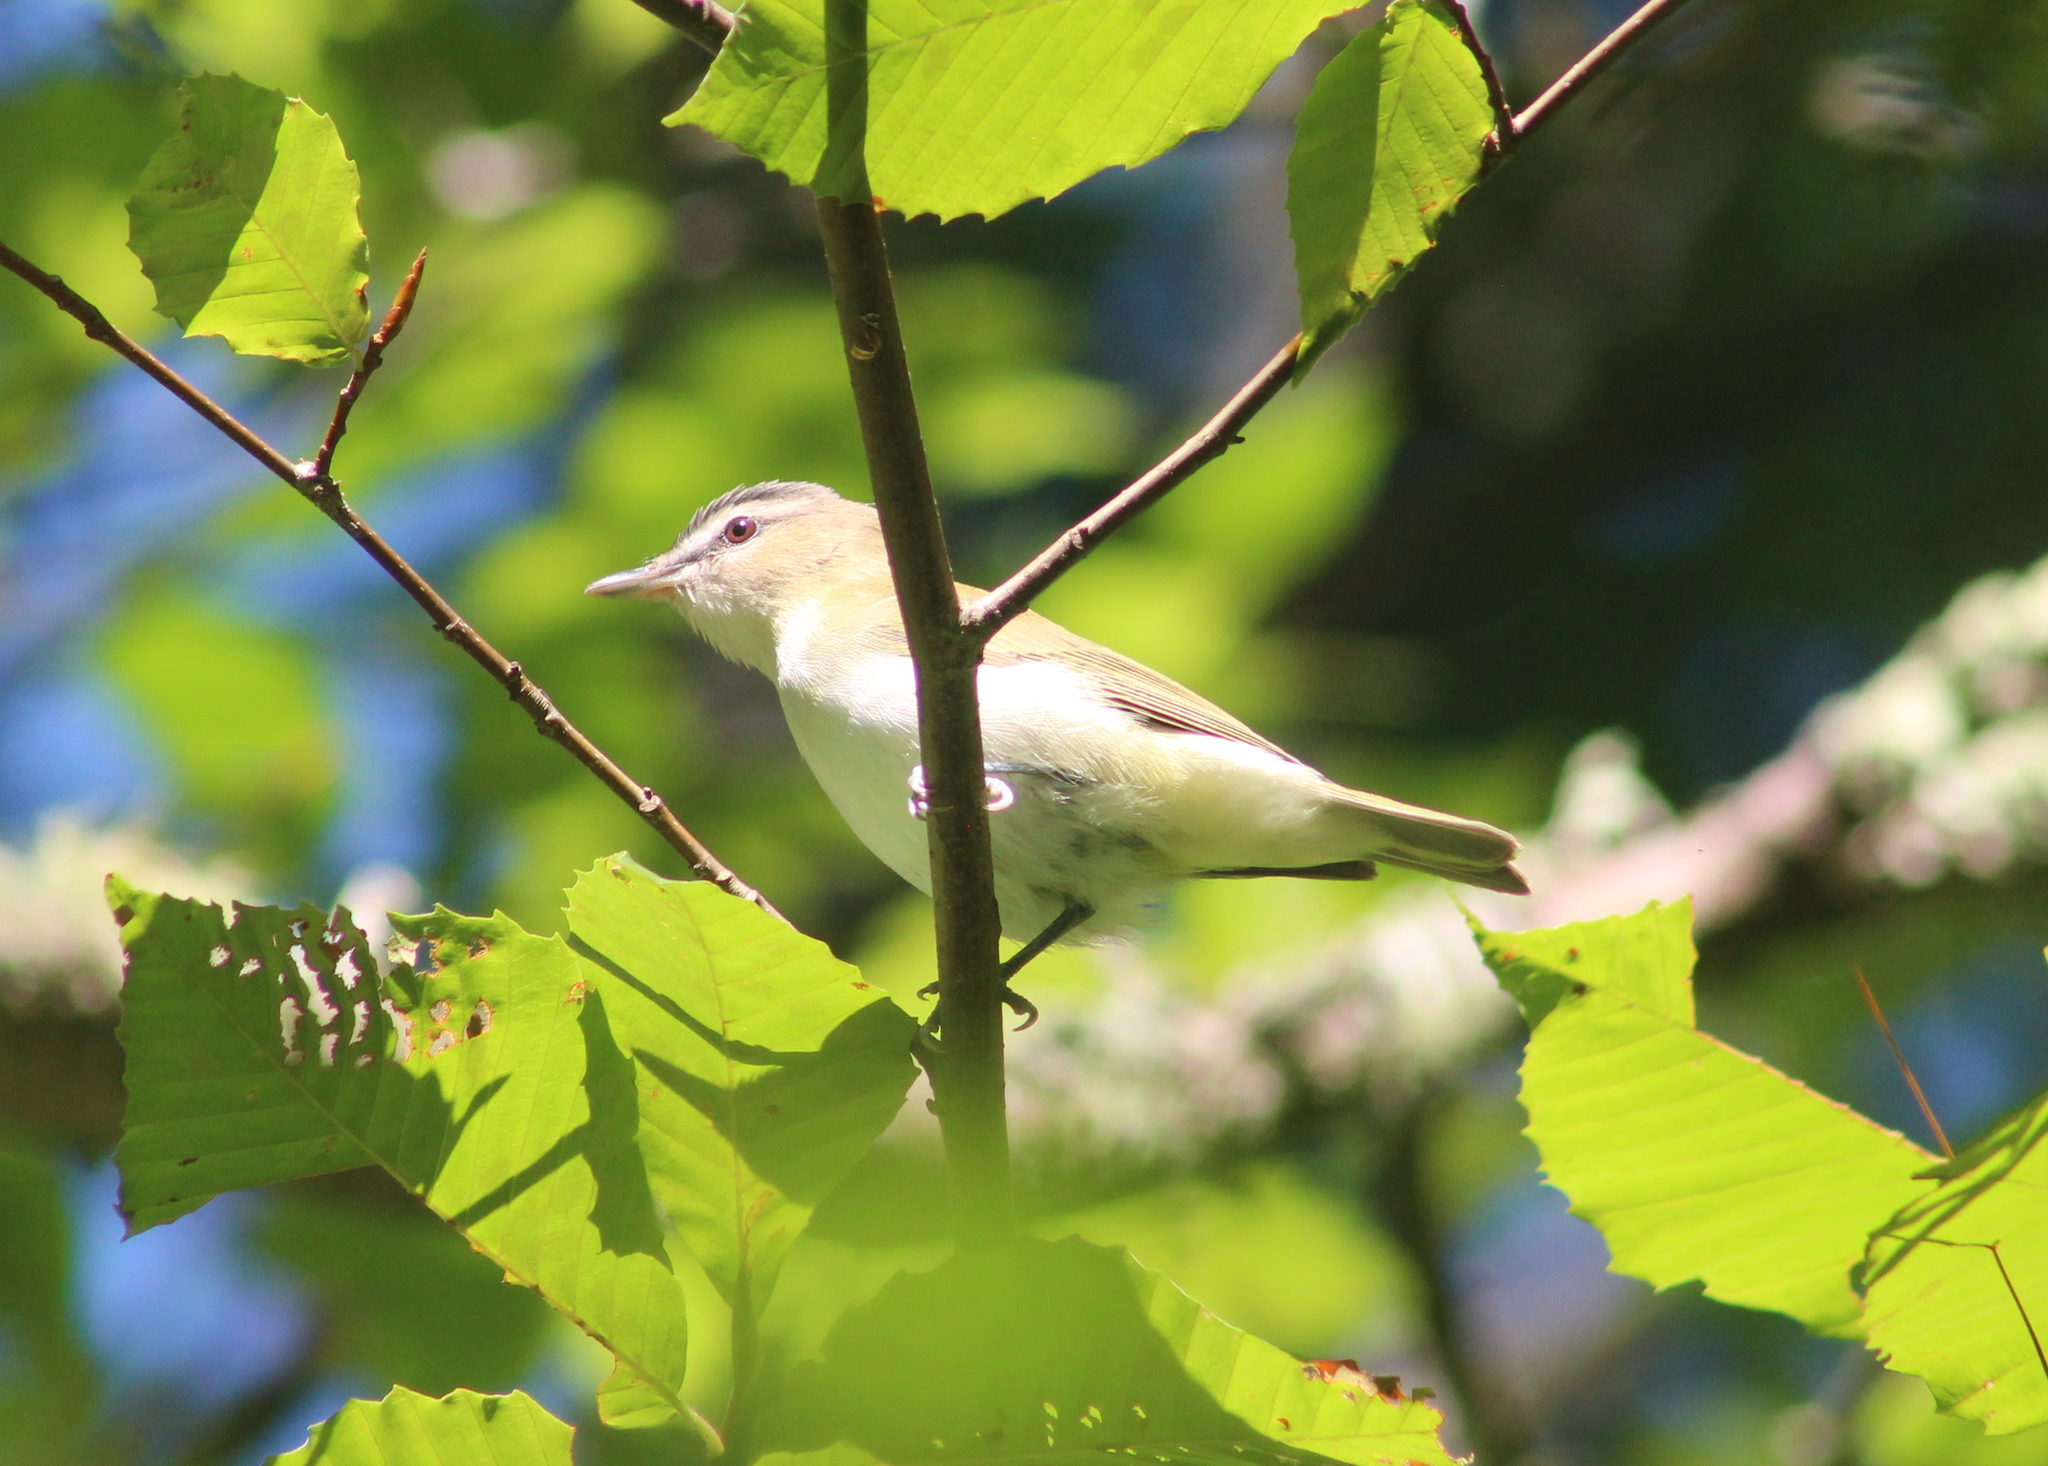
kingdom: Animalia
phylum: Chordata
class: Aves
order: Passeriformes
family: Vireonidae
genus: Vireo
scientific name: Vireo olivaceus
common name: Red-eyed vireo
